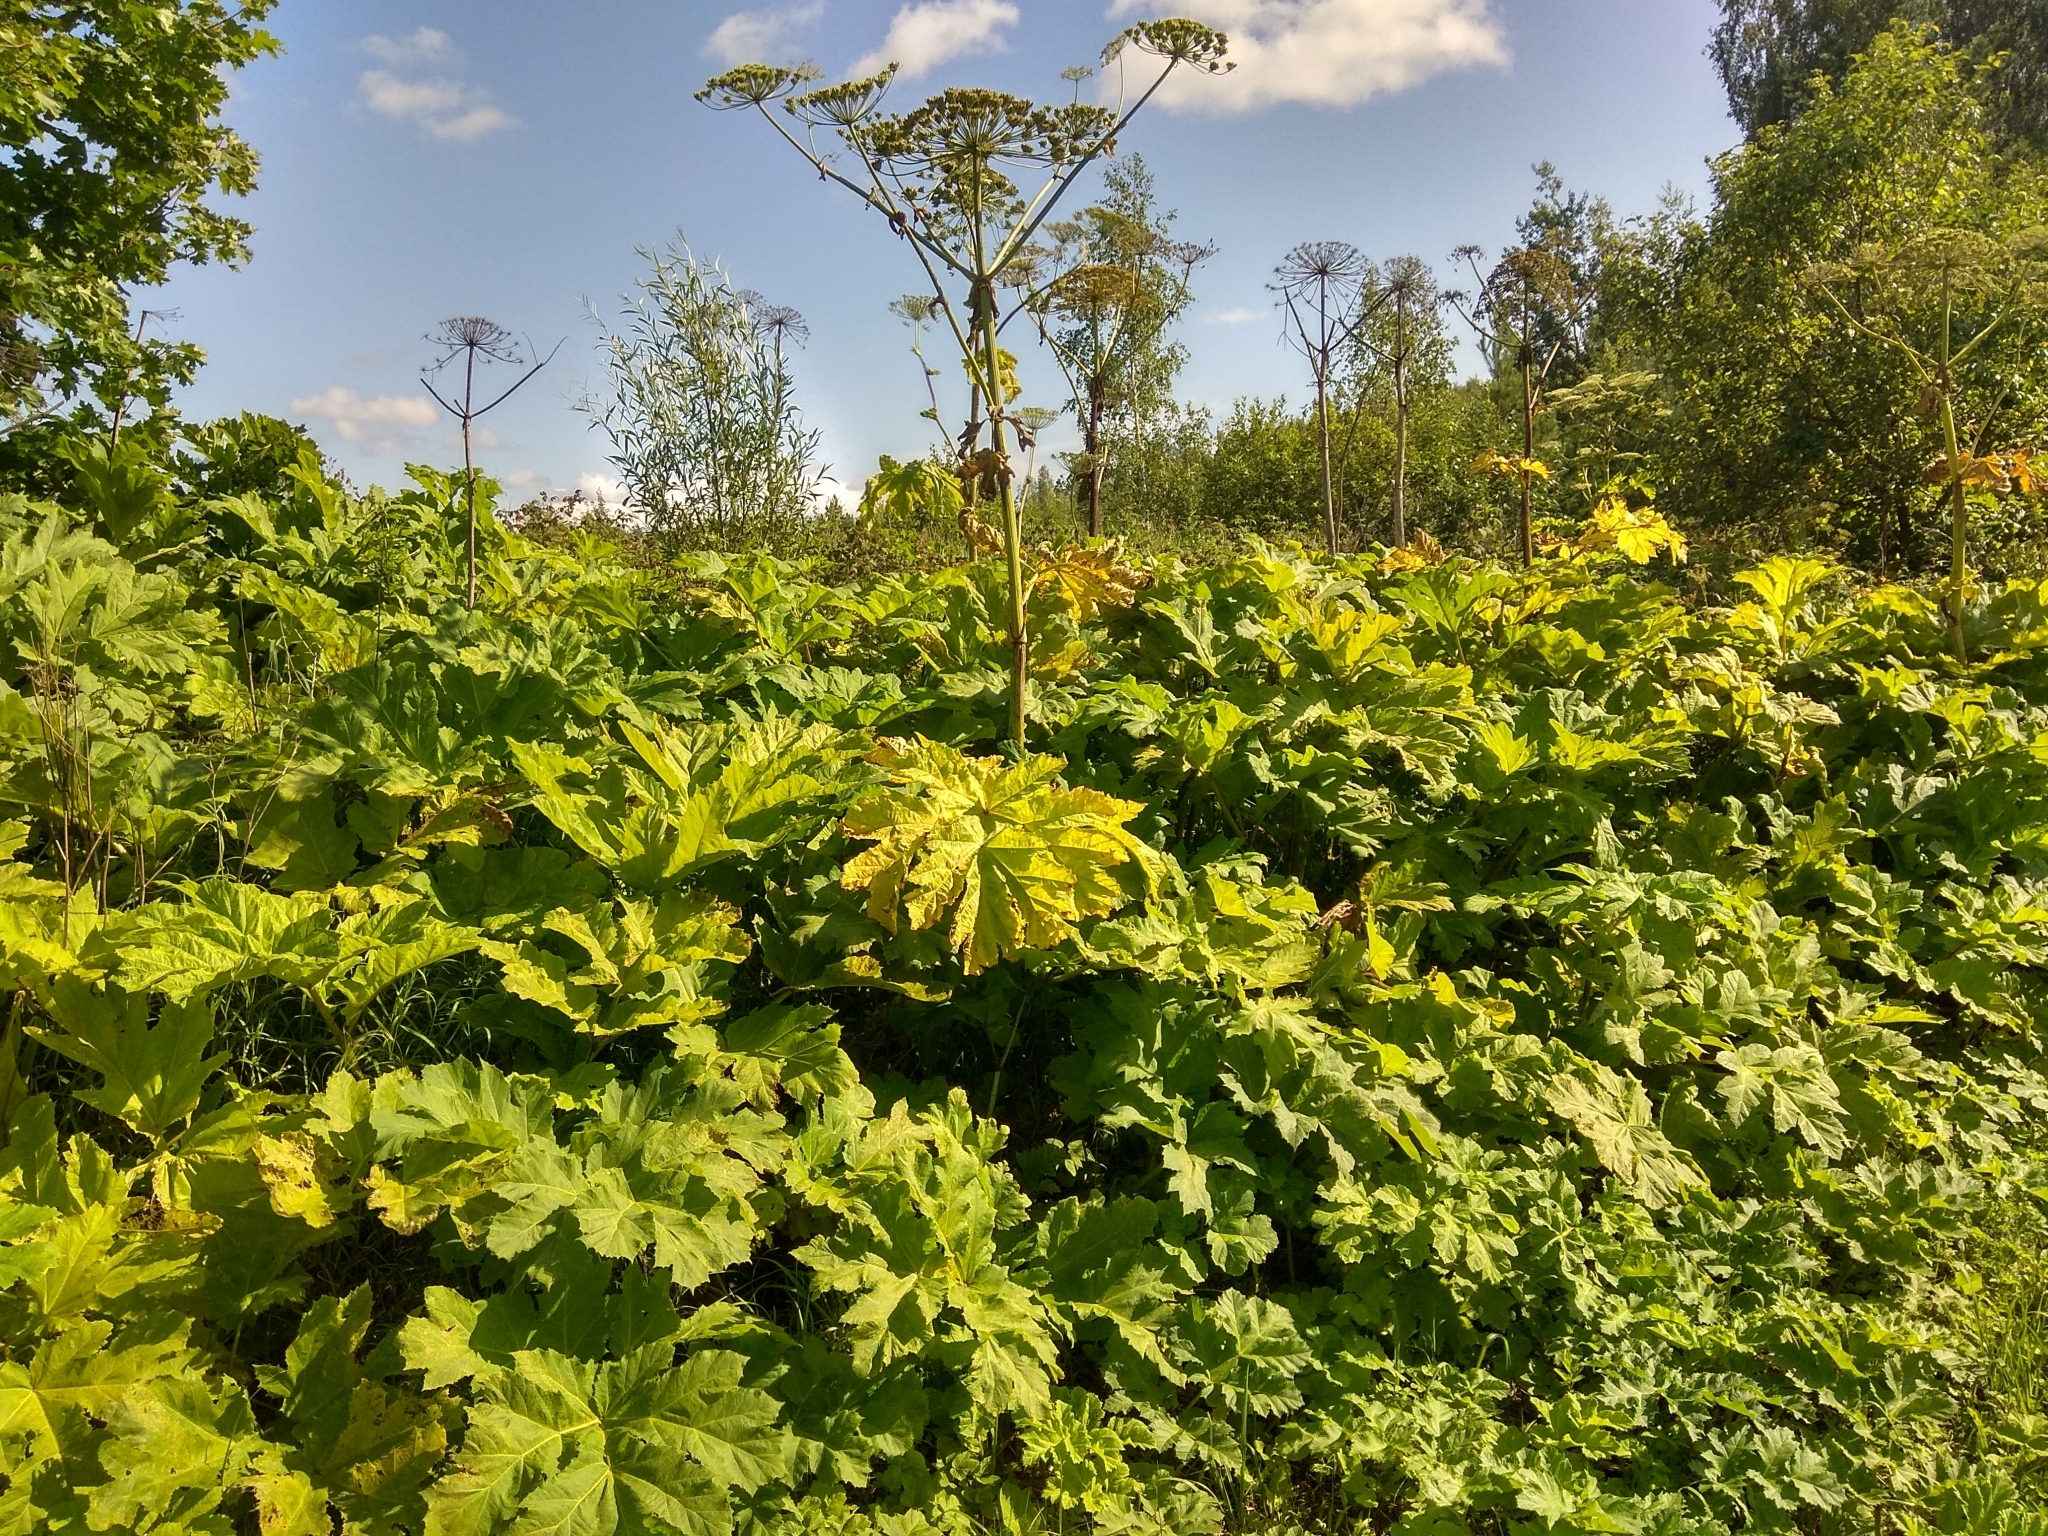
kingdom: Plantae
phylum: Tracheophyta
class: Magnoliopsida
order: Apiales
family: Apiaceae
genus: Heracleum
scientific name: Heracleum sosnowskyi
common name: Sosnowsky's hogweed
